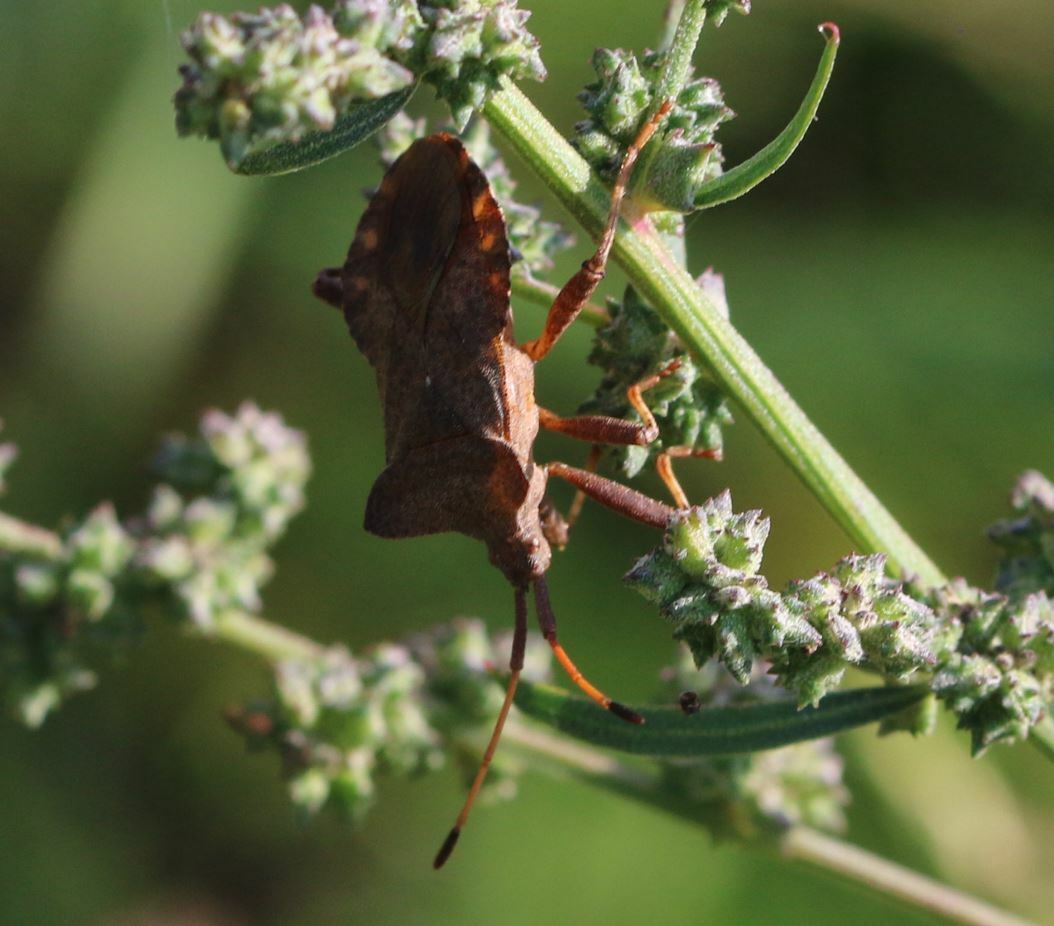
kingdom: Animalia
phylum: Arthropoda
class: Insecta
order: Hemiptera
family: Coreidae
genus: Coreus
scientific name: Coreus marginatus
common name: Dock bug
